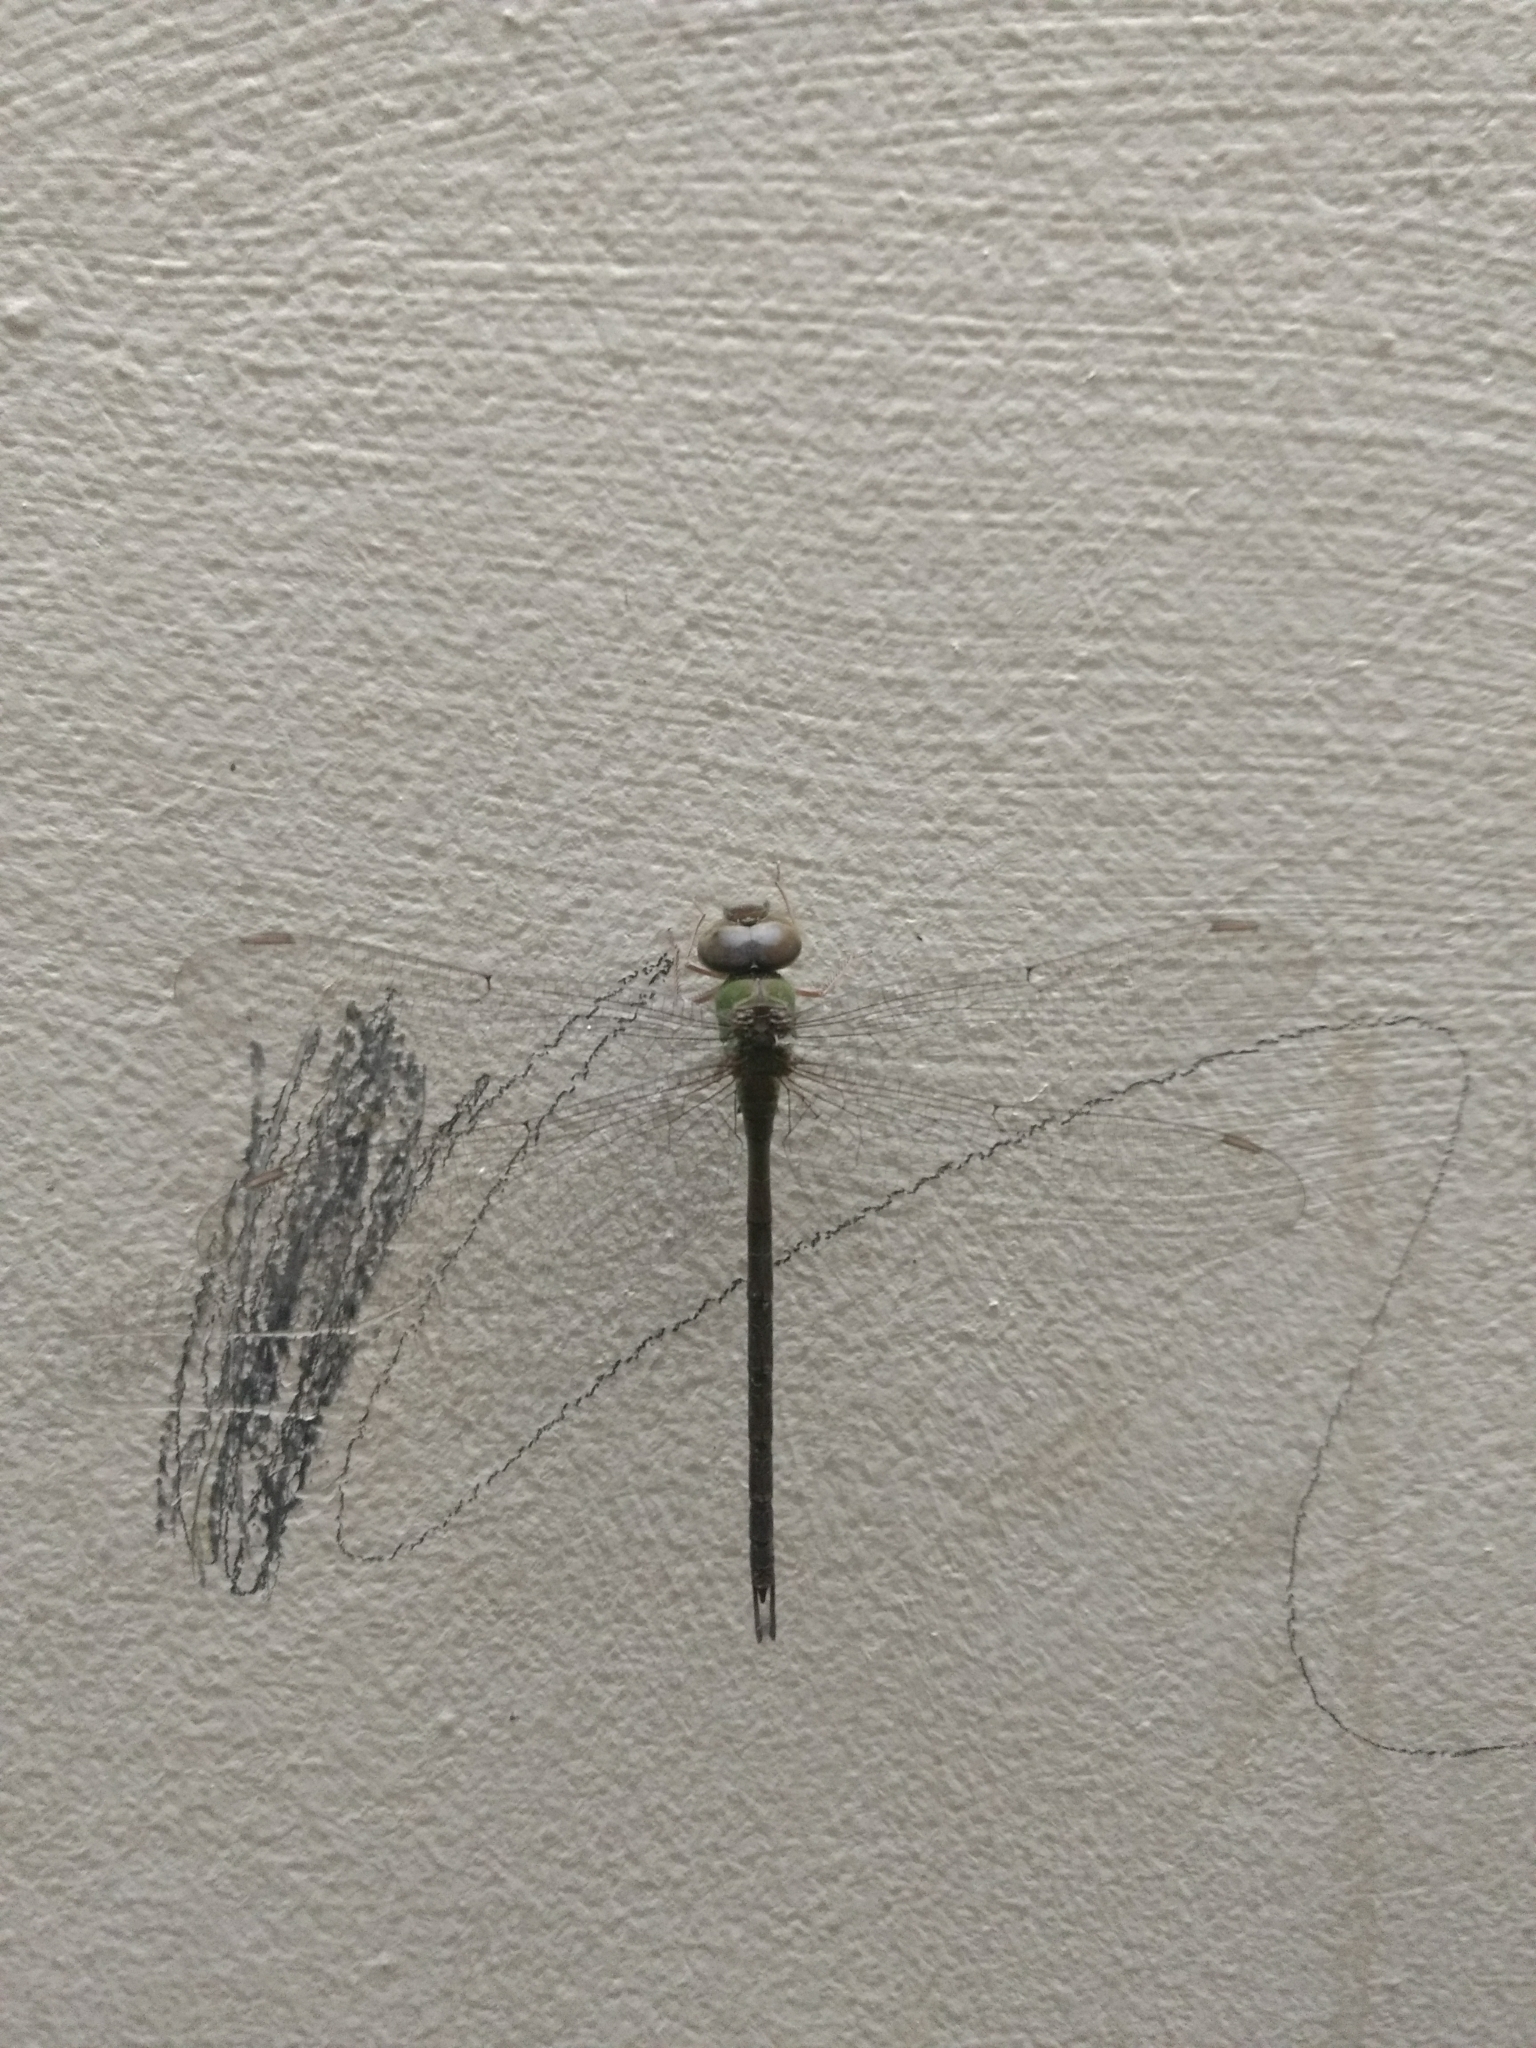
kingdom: Animalia
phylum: Arthropoda
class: Insecta
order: Odonata
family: Aeshnidae
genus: Gynacantha
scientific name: Gynacantha bayadera
